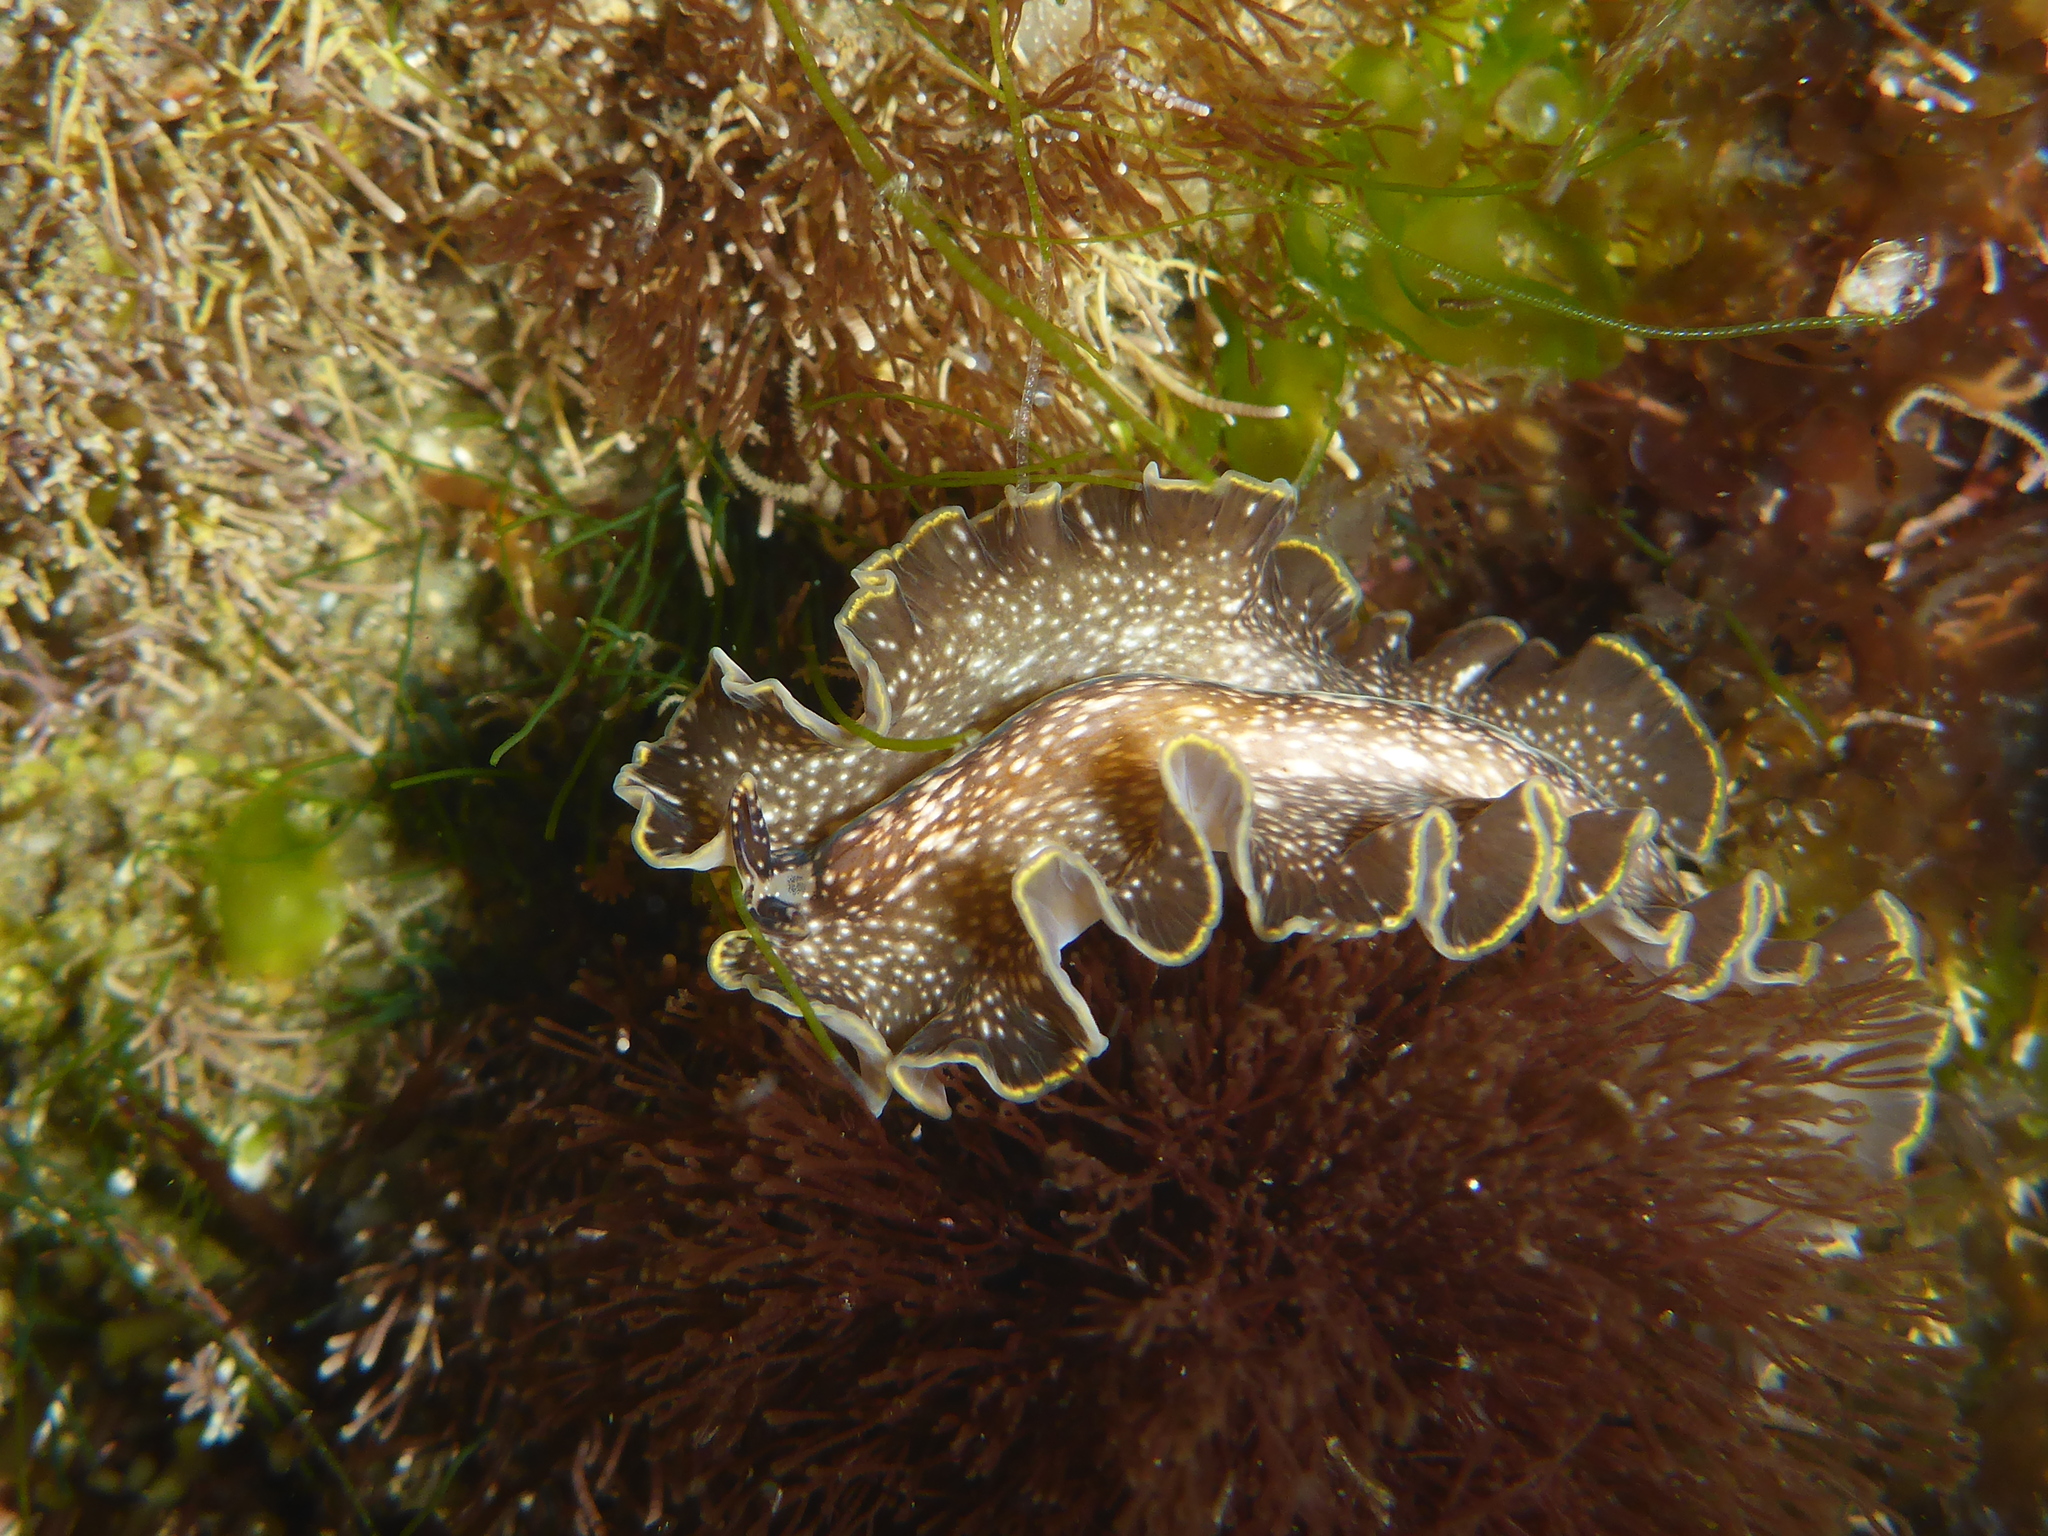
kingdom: Animalia
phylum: Platyhelminthes
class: Turbellaria
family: Pseudocerotidae
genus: Pseudoceros
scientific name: Pseudoceros mexicanus
